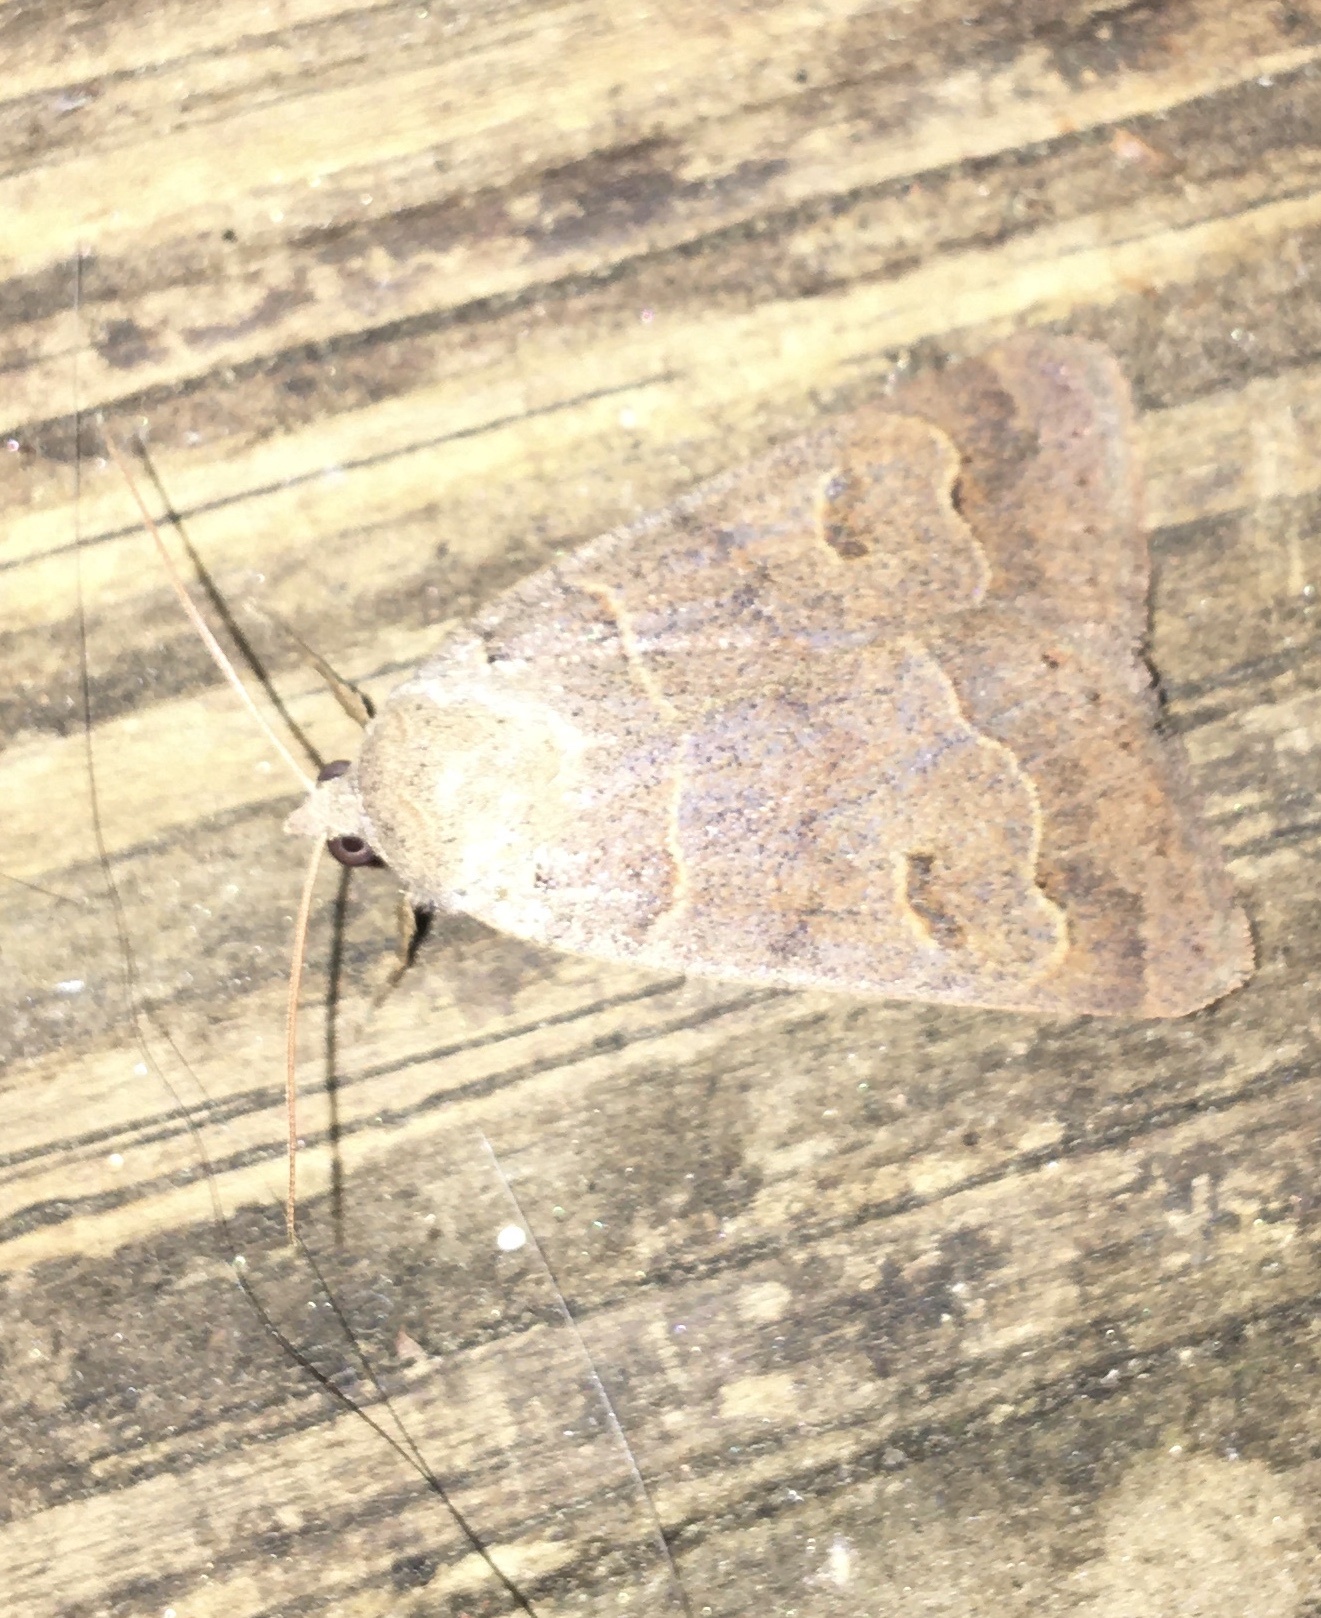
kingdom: Animalia
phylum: Arthropoda
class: Insecta
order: Lepidoptera
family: Erebidae
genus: Phoberia
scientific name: Phoberia atomaris
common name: Common oak moth
